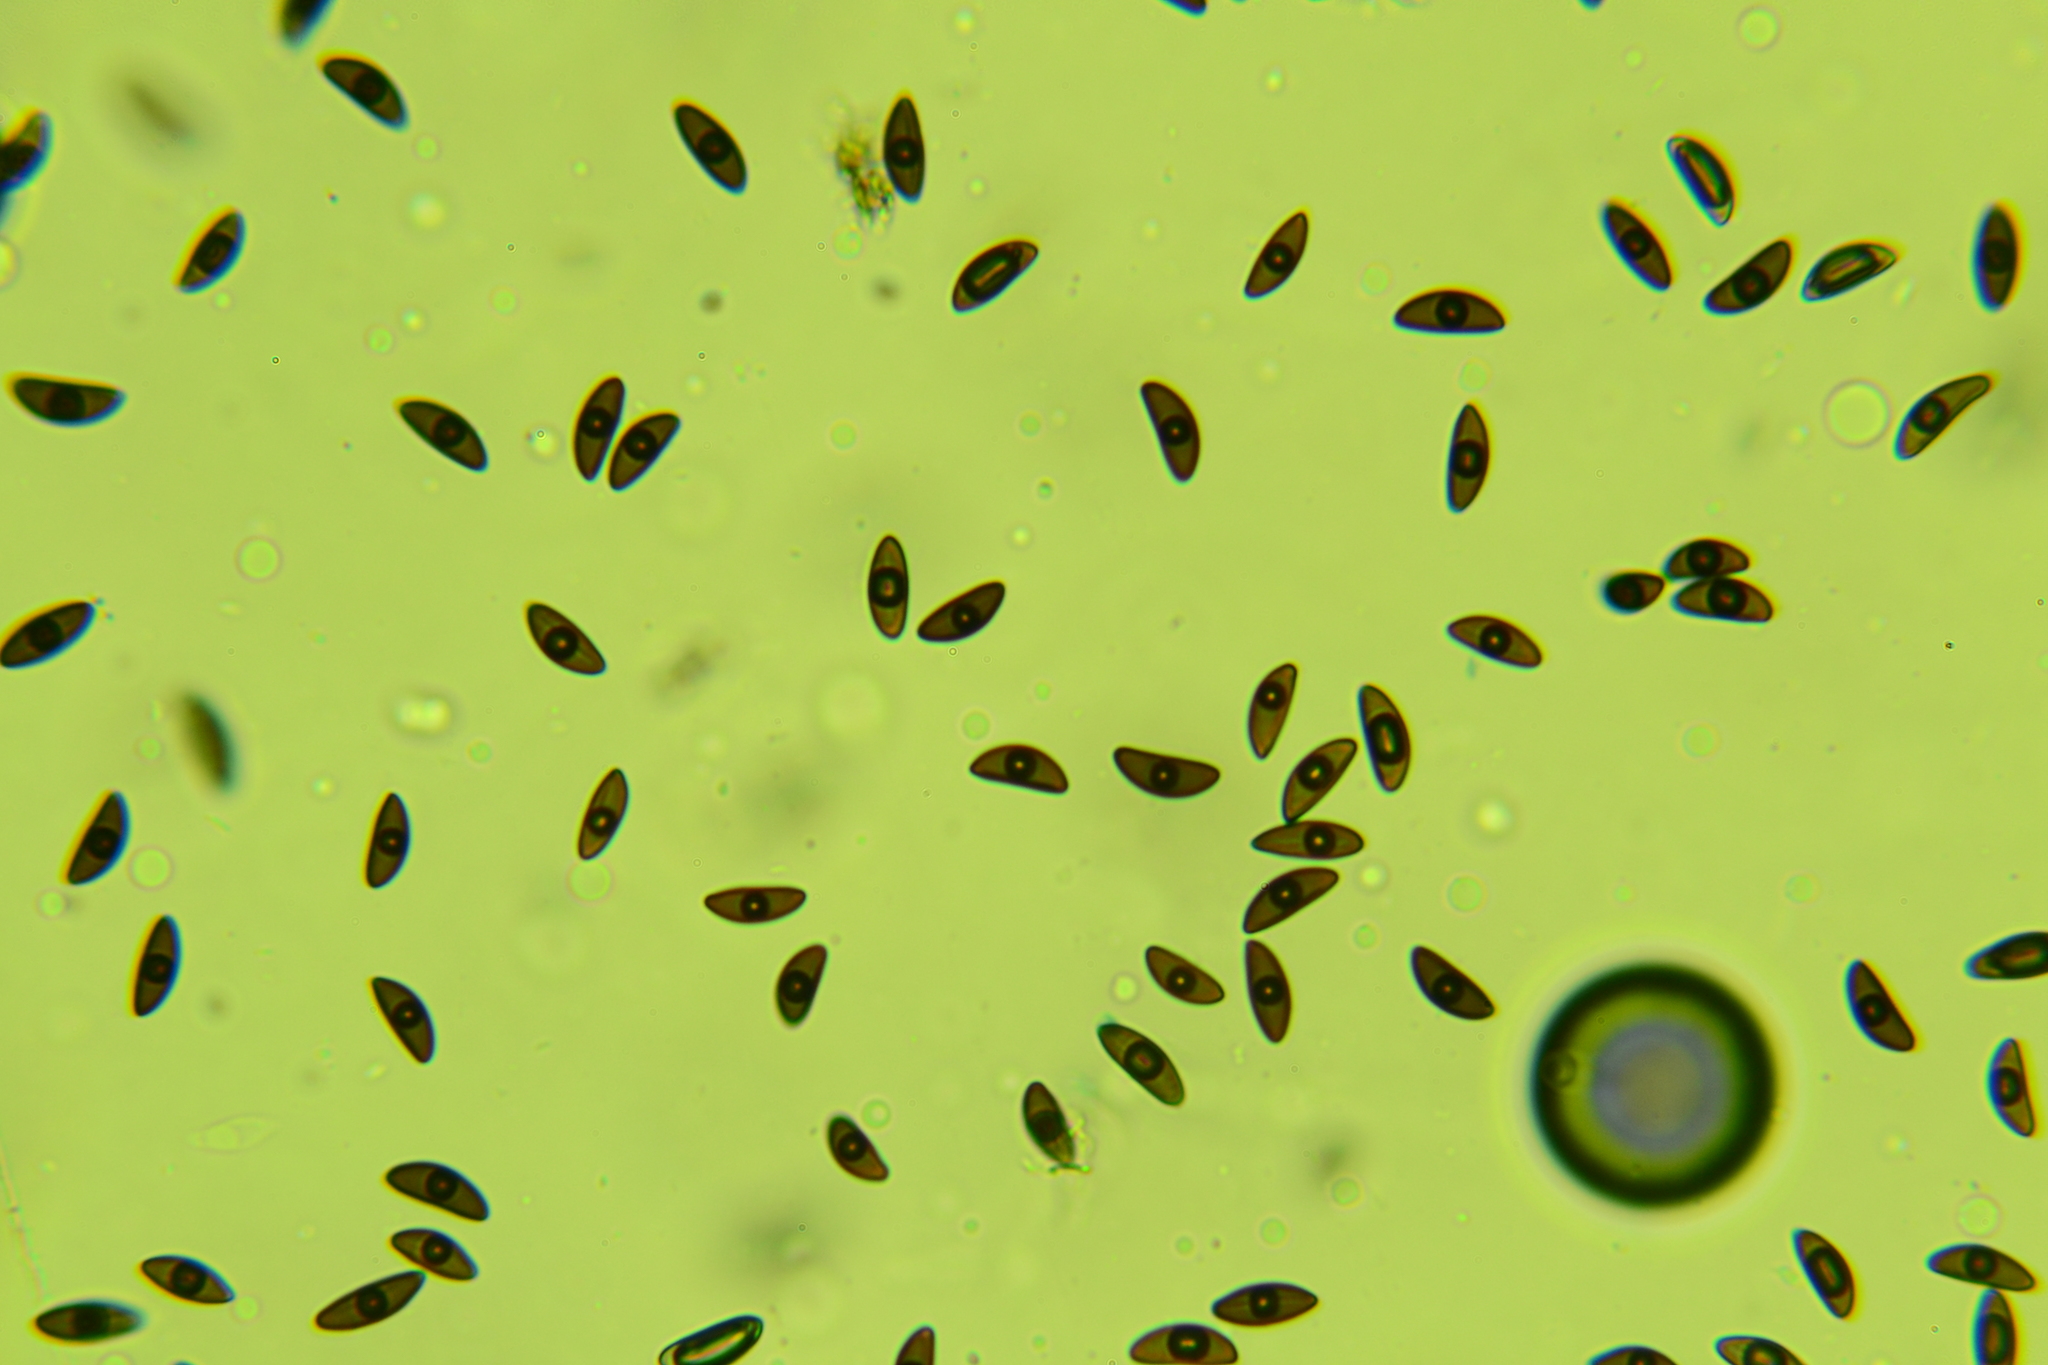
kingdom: Fungi
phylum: Ascomycota
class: Sordariomycetes
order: Xylariales
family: Xylariaceae
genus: Xylaria
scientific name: Xylaria vasconica
